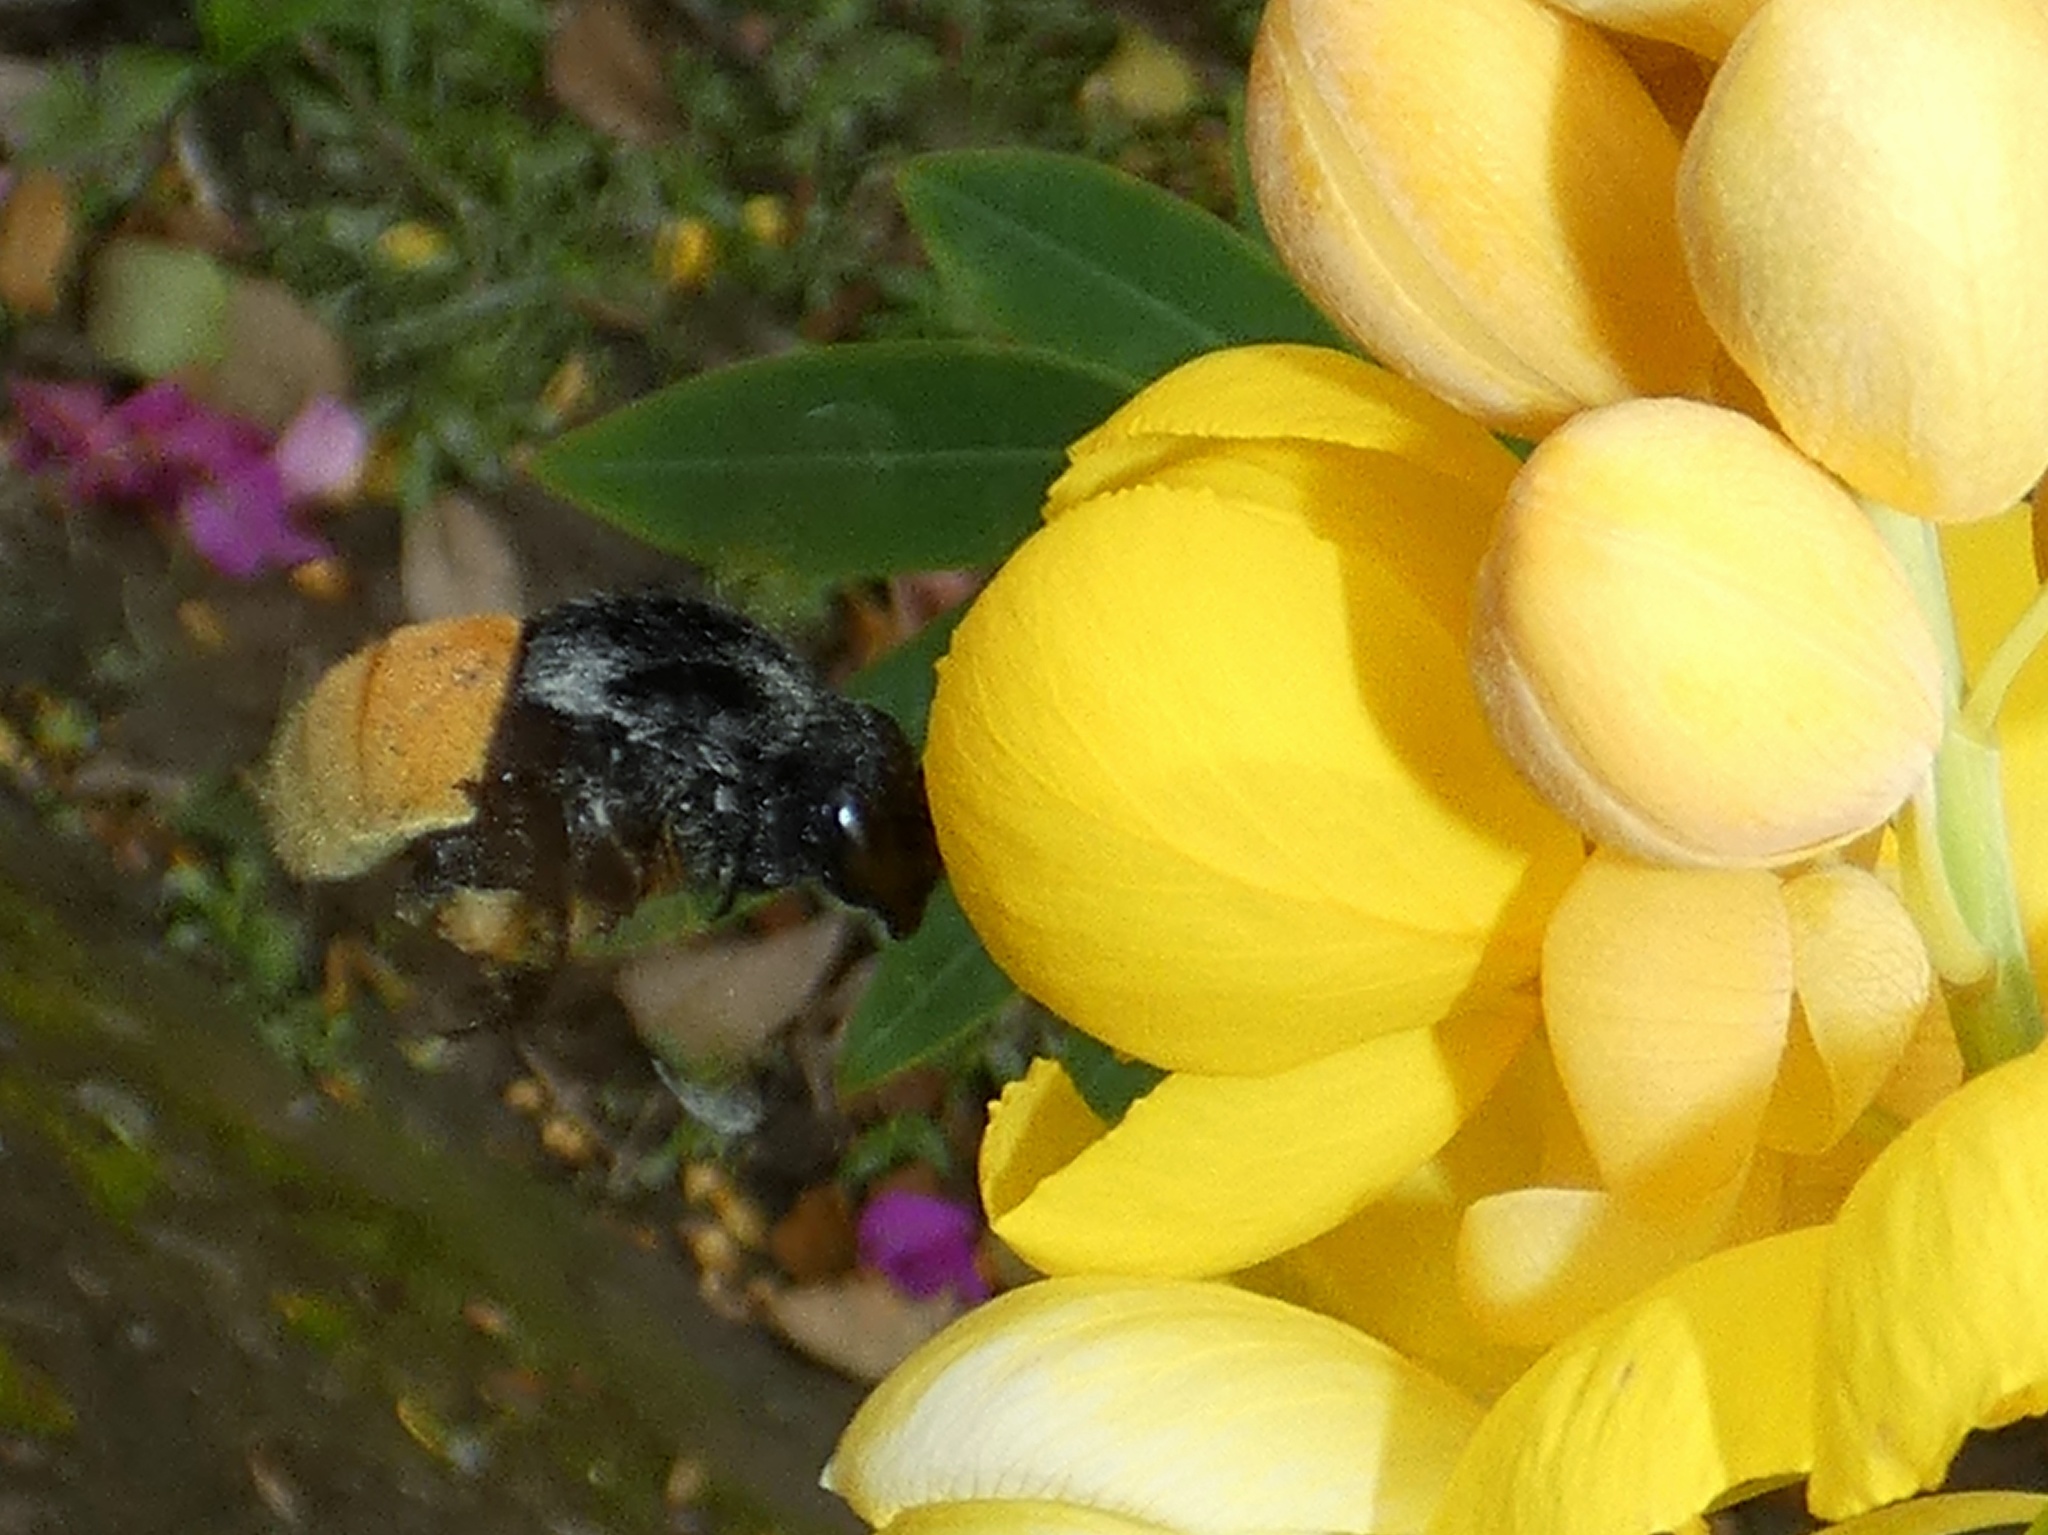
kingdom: Animalia
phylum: Arthropoda
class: Insecta
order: Hymenoptera
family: Apidae
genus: Eulaema
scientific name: Eulaema polychroma
